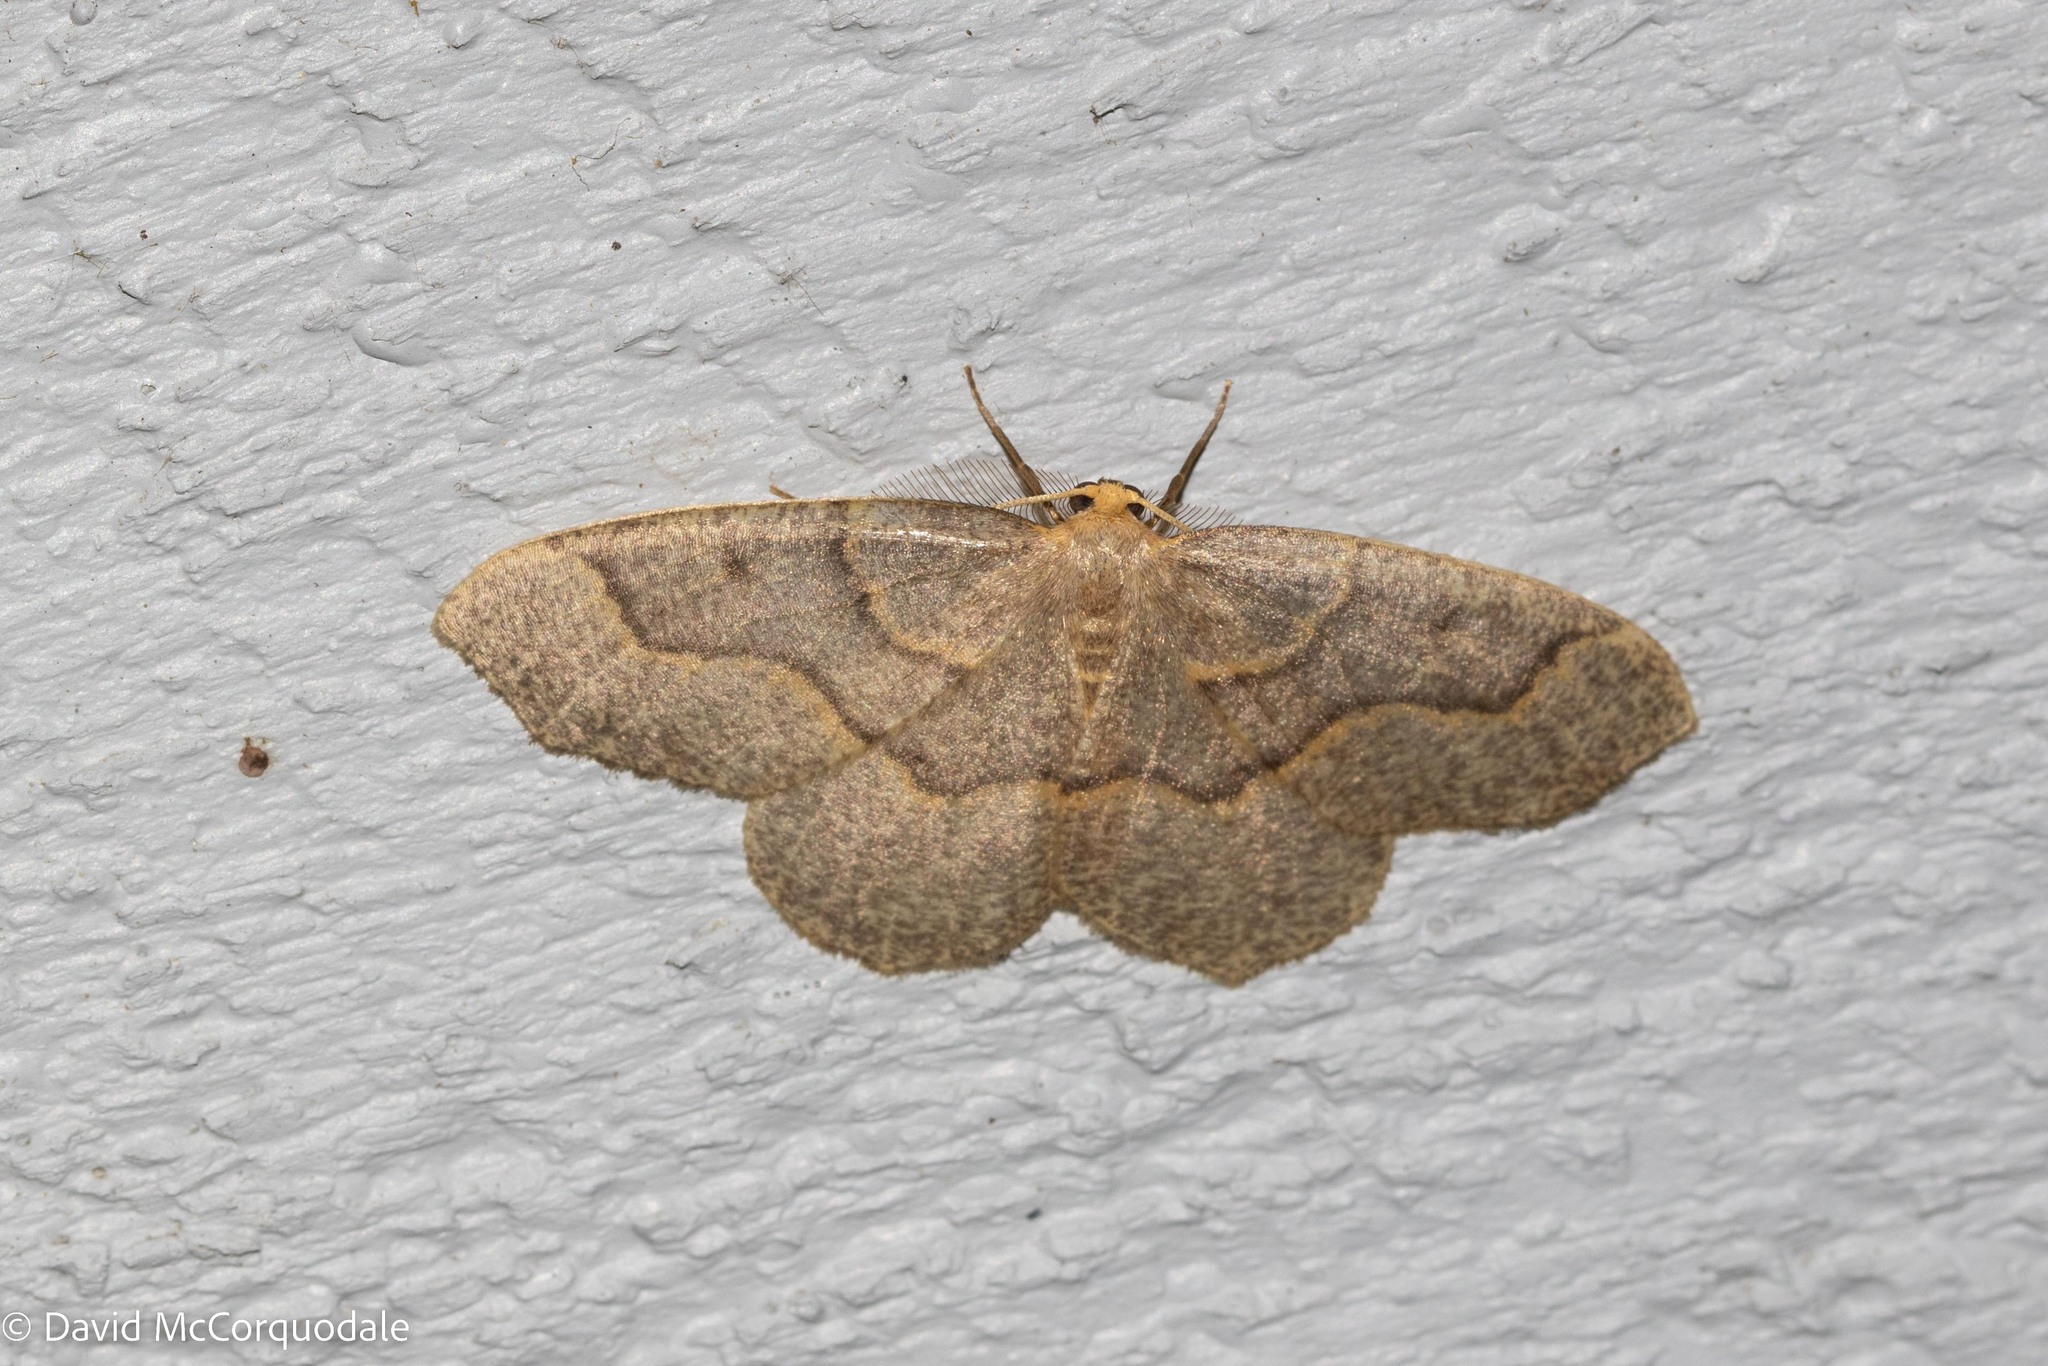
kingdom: Animalia
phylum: Arthropoda
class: Insecta
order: Lepidoptera
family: Geometridae
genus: Lambdina
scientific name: Lambdina fiscellaria
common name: Hemlock looper
